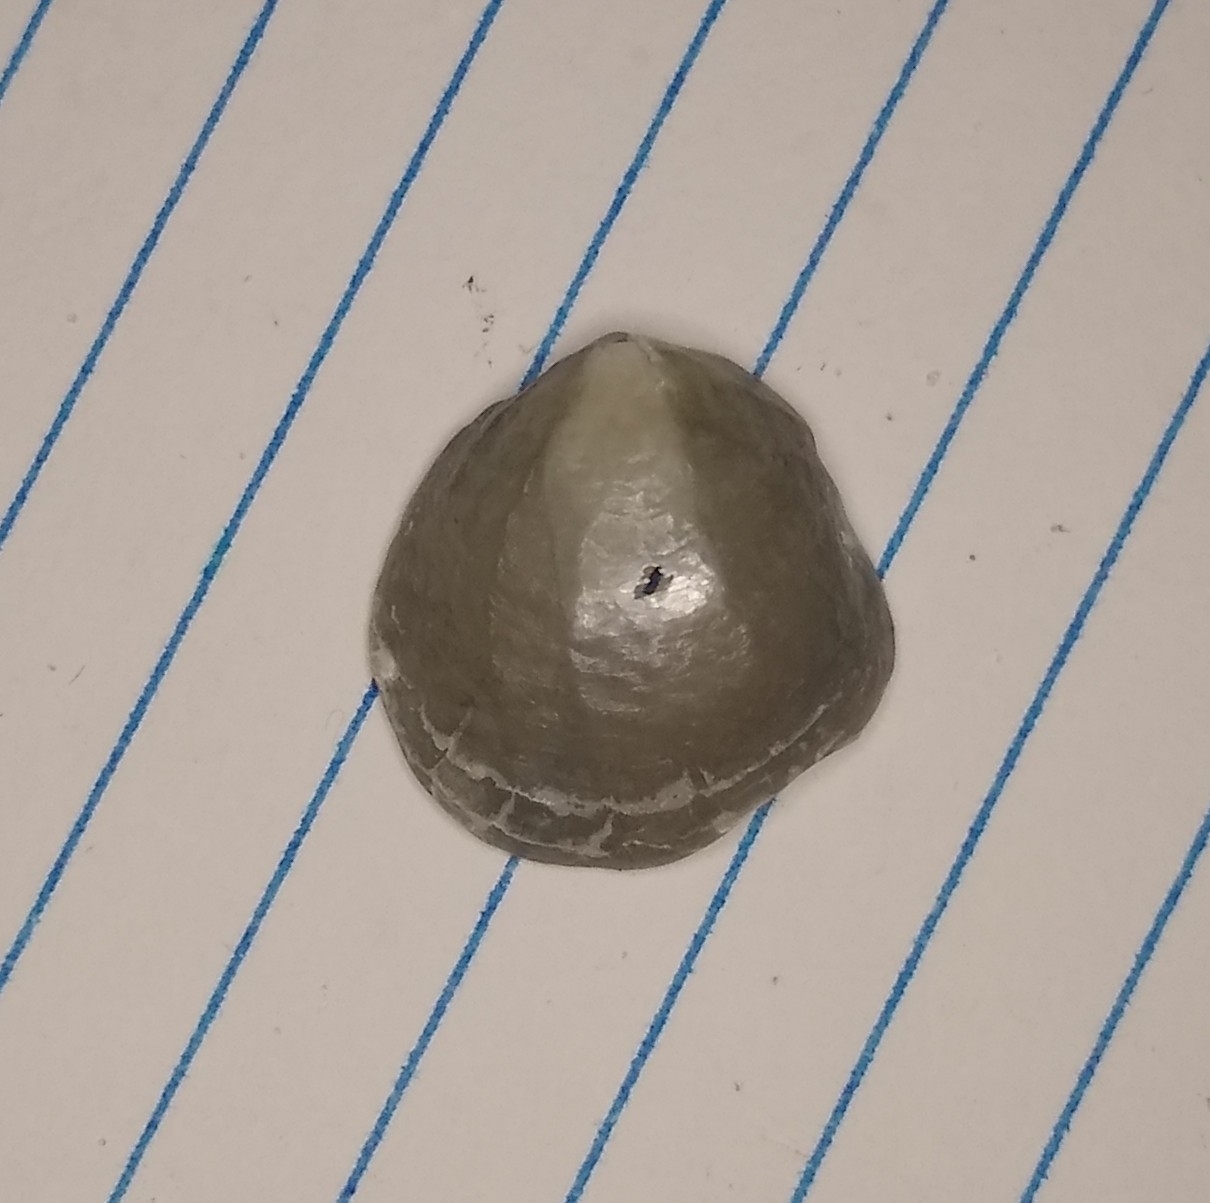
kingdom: Animalia
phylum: Mollusca
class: Bivalvia
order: Pectinida
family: Anomiidae
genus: Anomia
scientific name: Anomia simplex
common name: Common jingle shell
